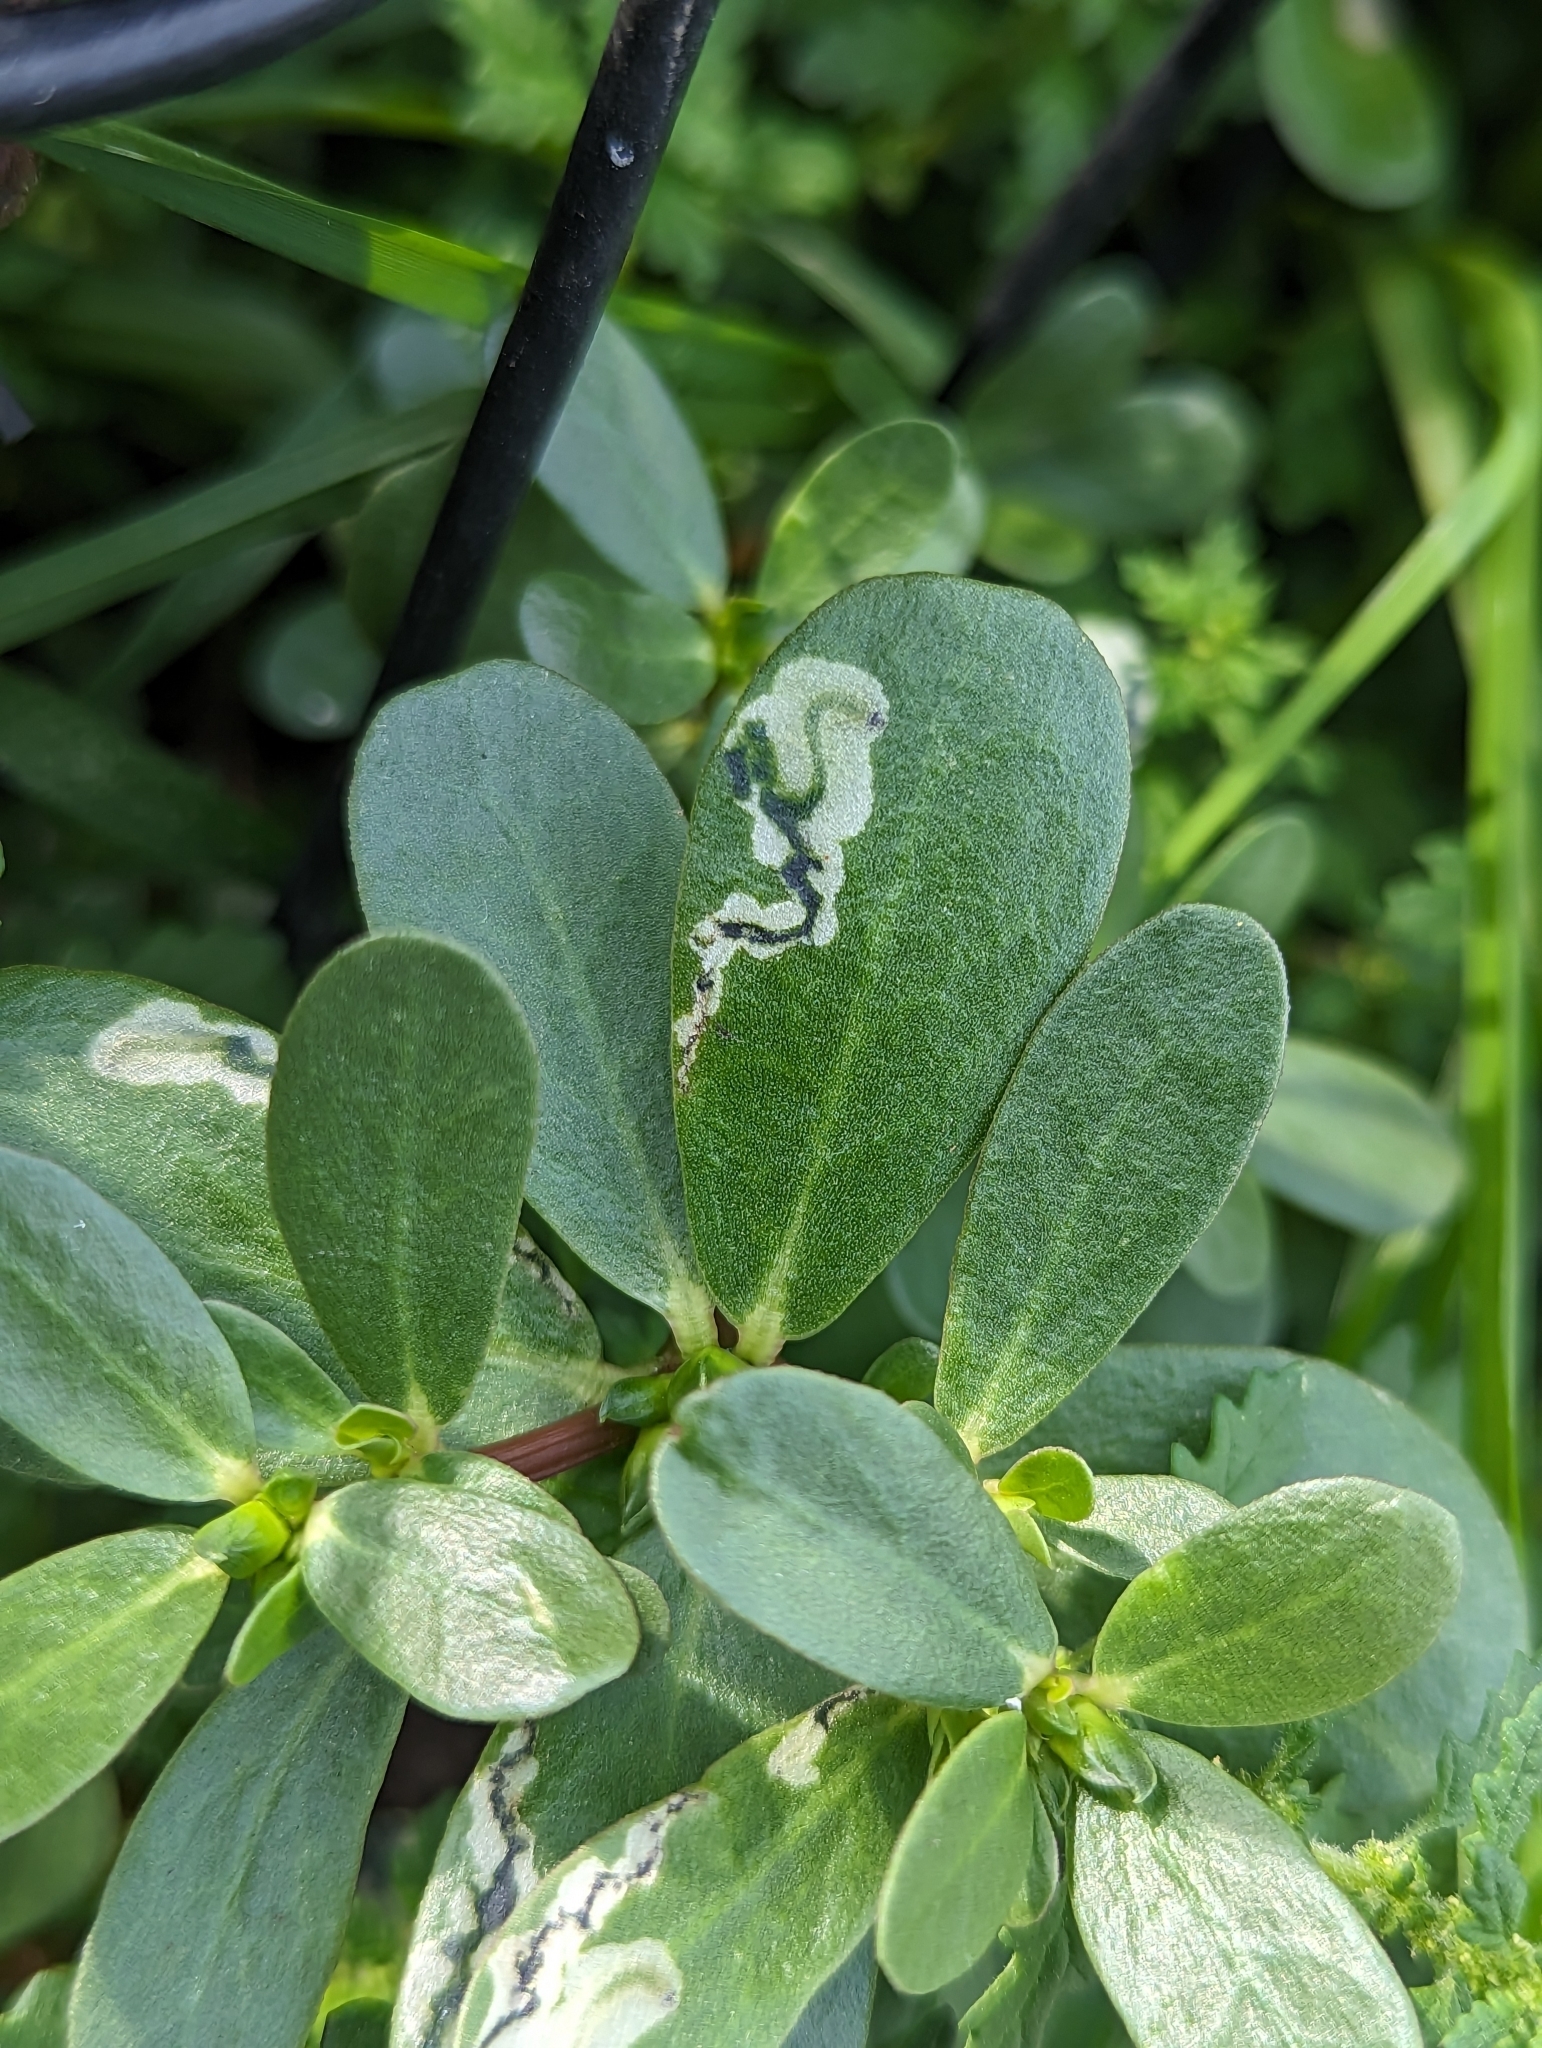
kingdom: Animalia
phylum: Arthropoda
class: Insecta
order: Hymenoptera
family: Argidae
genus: Schizocerella
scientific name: Schizocerella pilicornis
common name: Purslane sawfly
